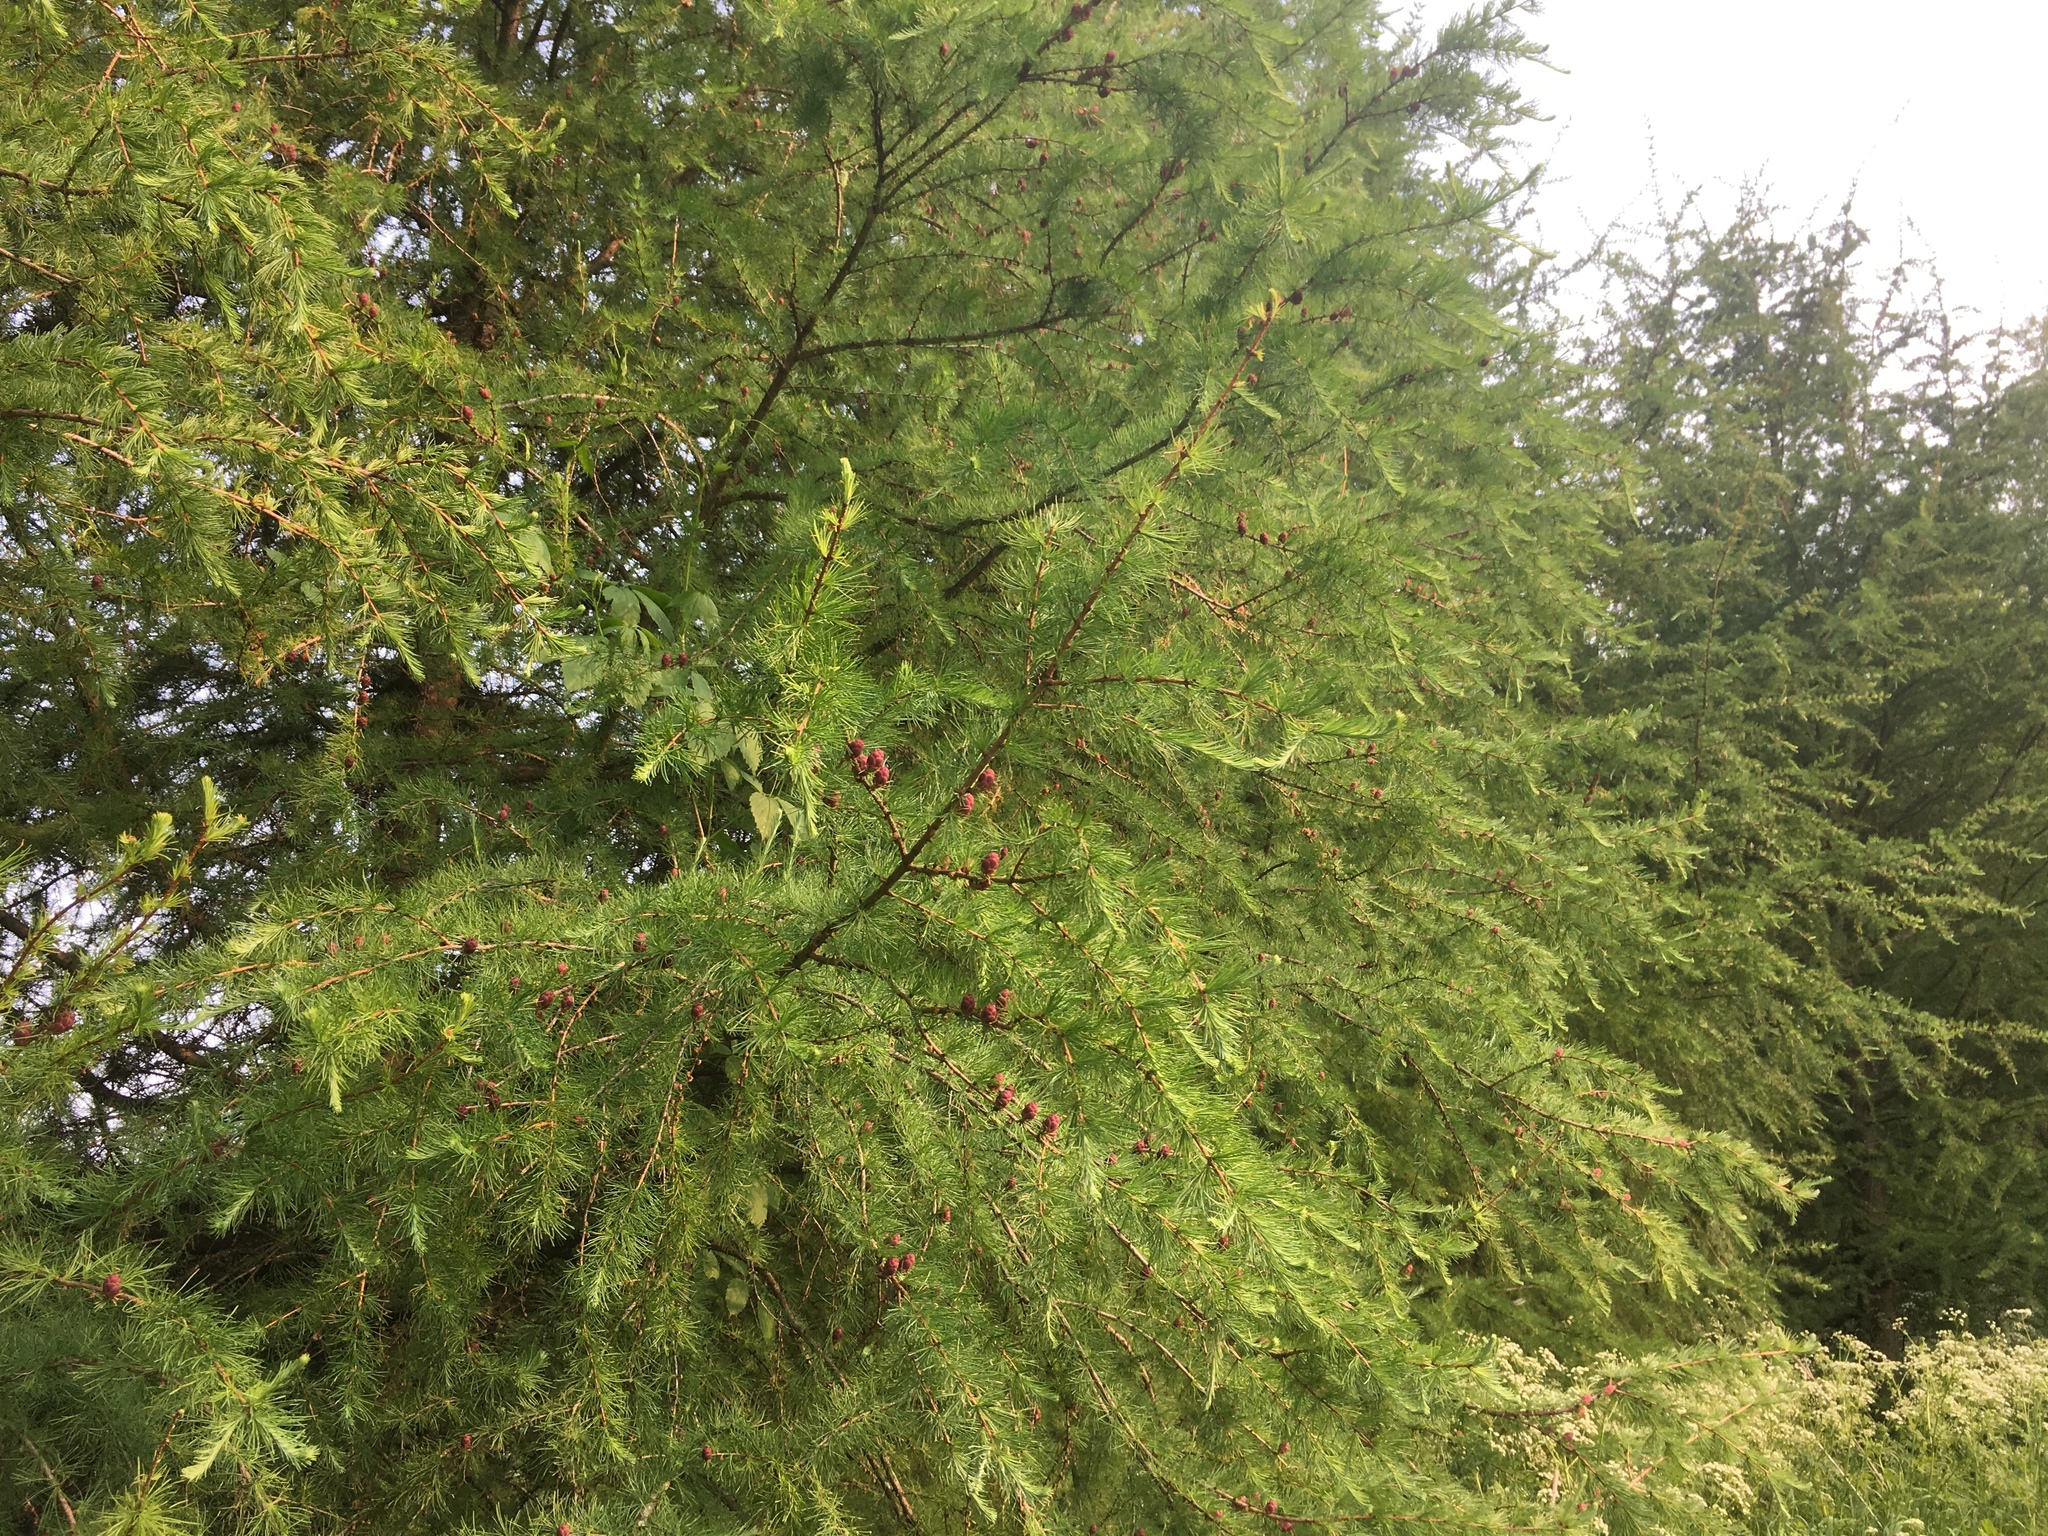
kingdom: Plantae
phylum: Tracheophyta
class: Pinopsida
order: Pinales
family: Pinaceae
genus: Larix
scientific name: Larix laricina
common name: American larch
